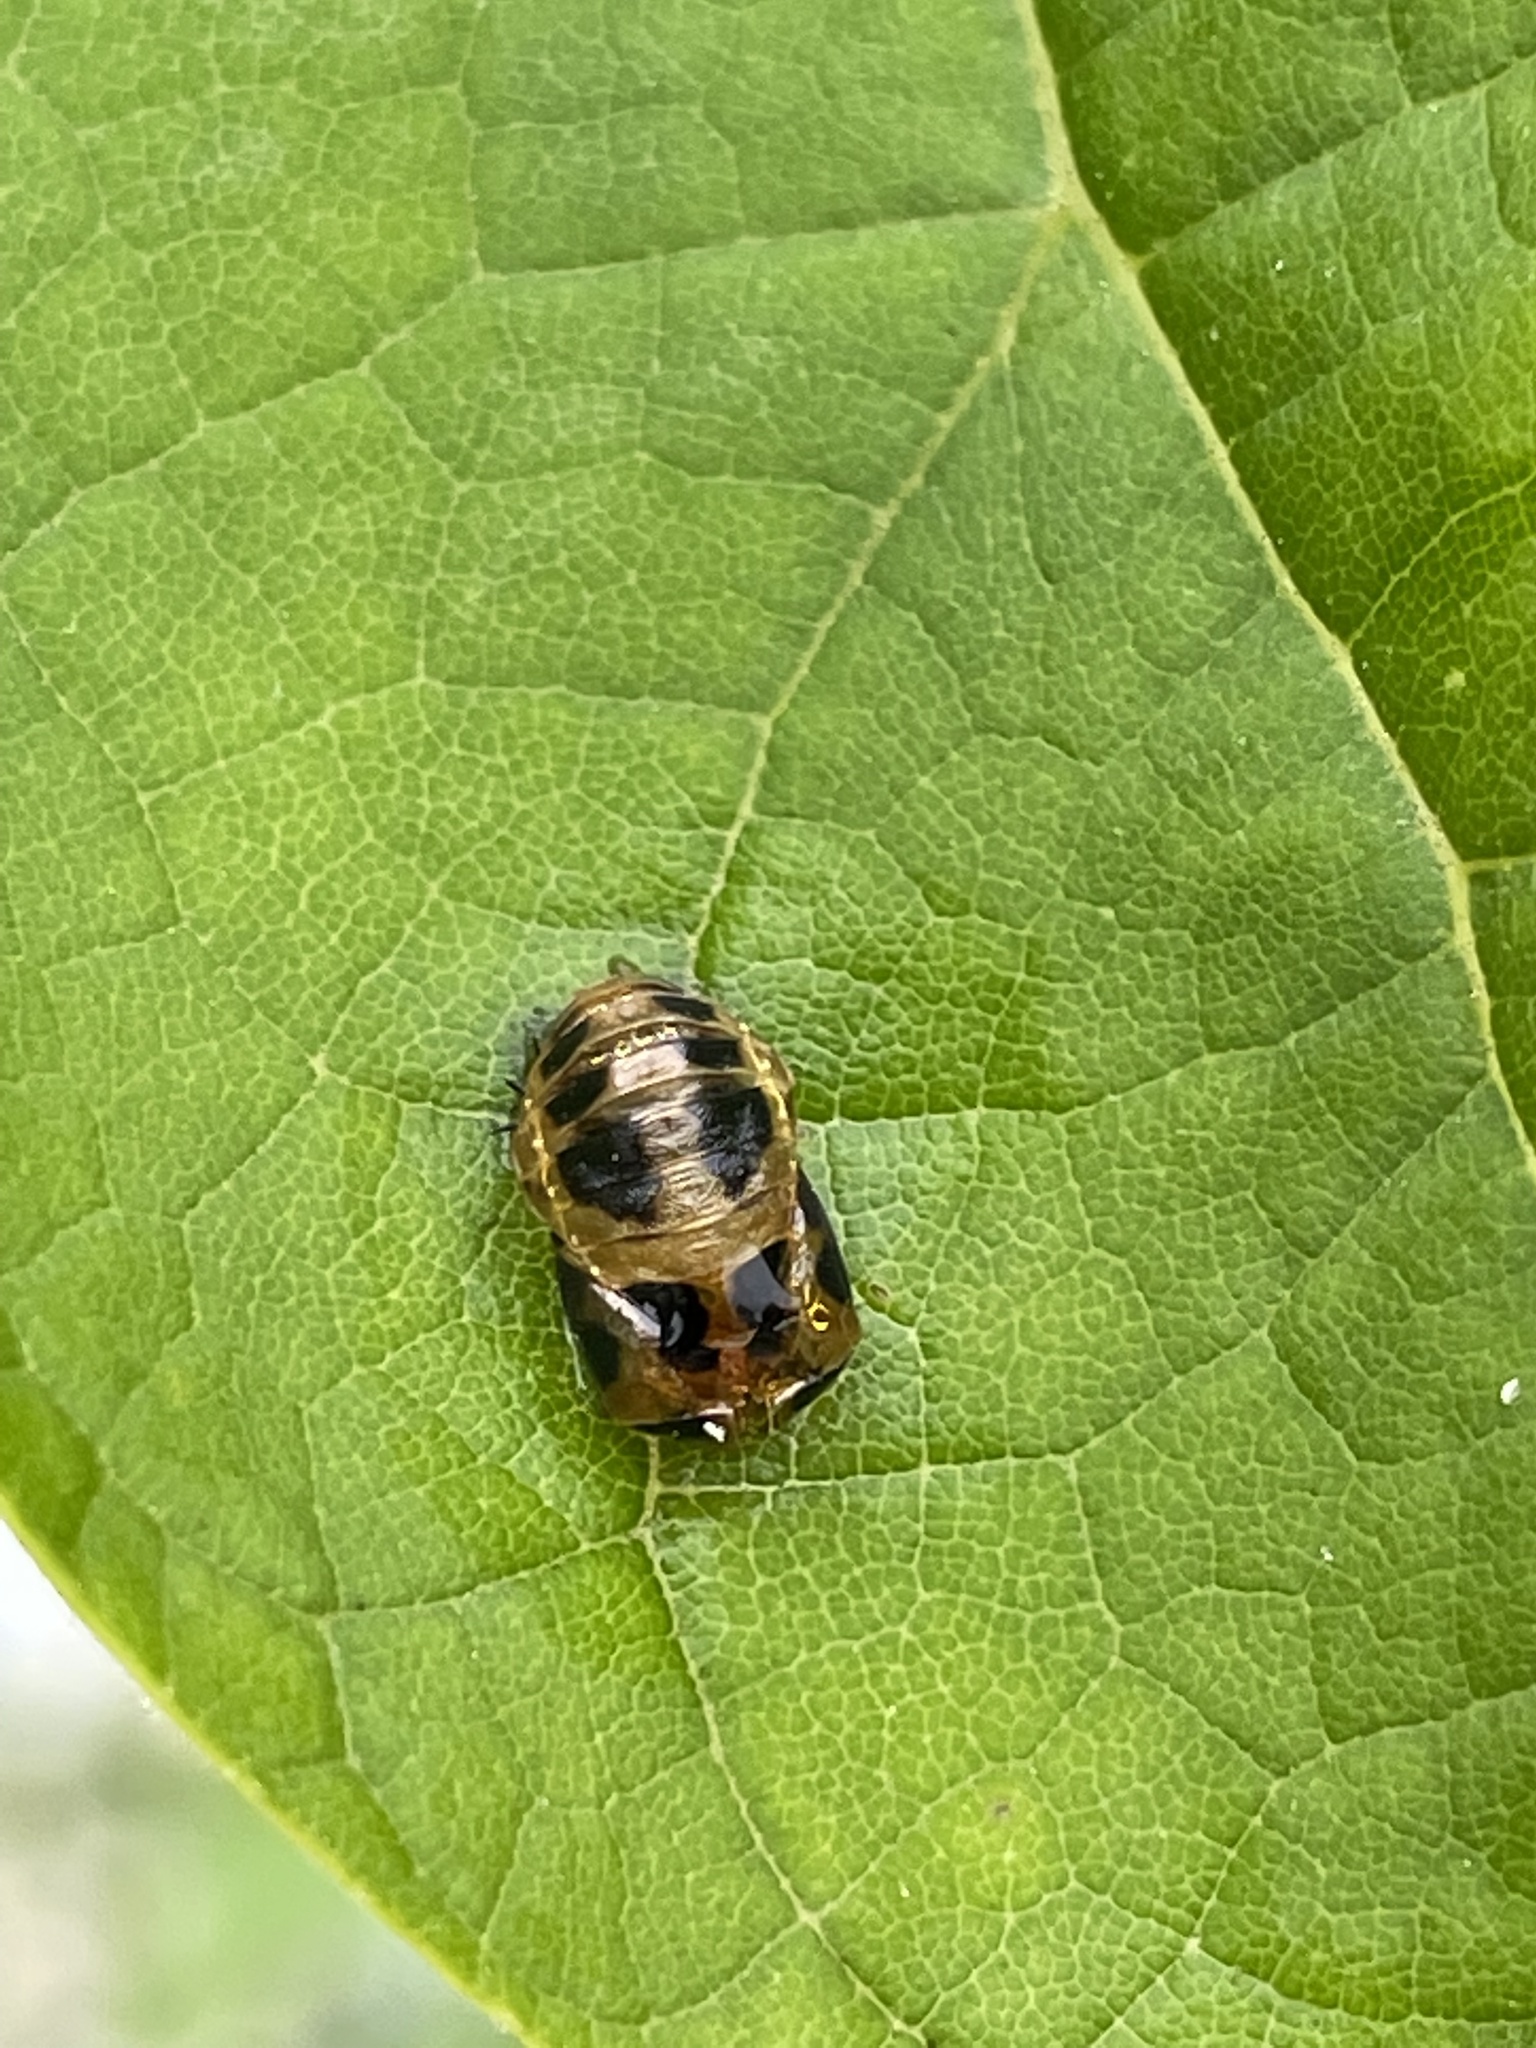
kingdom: Animalia
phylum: Arthropoda
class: Insecta
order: Coleoptera
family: Coccinellidae
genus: Harmonia
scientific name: Harmonia axyridis
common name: Harlequin ladybird
